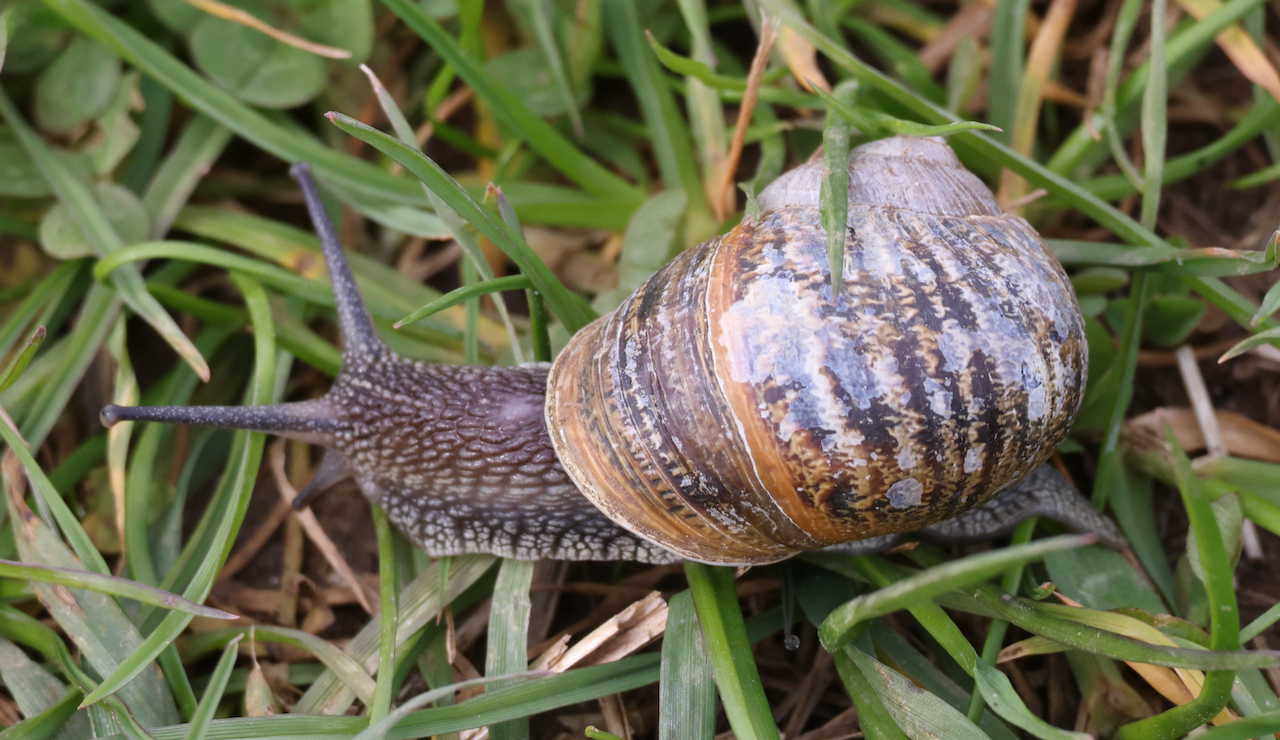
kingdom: Animalia
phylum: Mollusca
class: Gastropoda
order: Stylommatophora
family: Helicidae
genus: Cornu
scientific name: Cornu aspersum
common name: Brown garden snail
